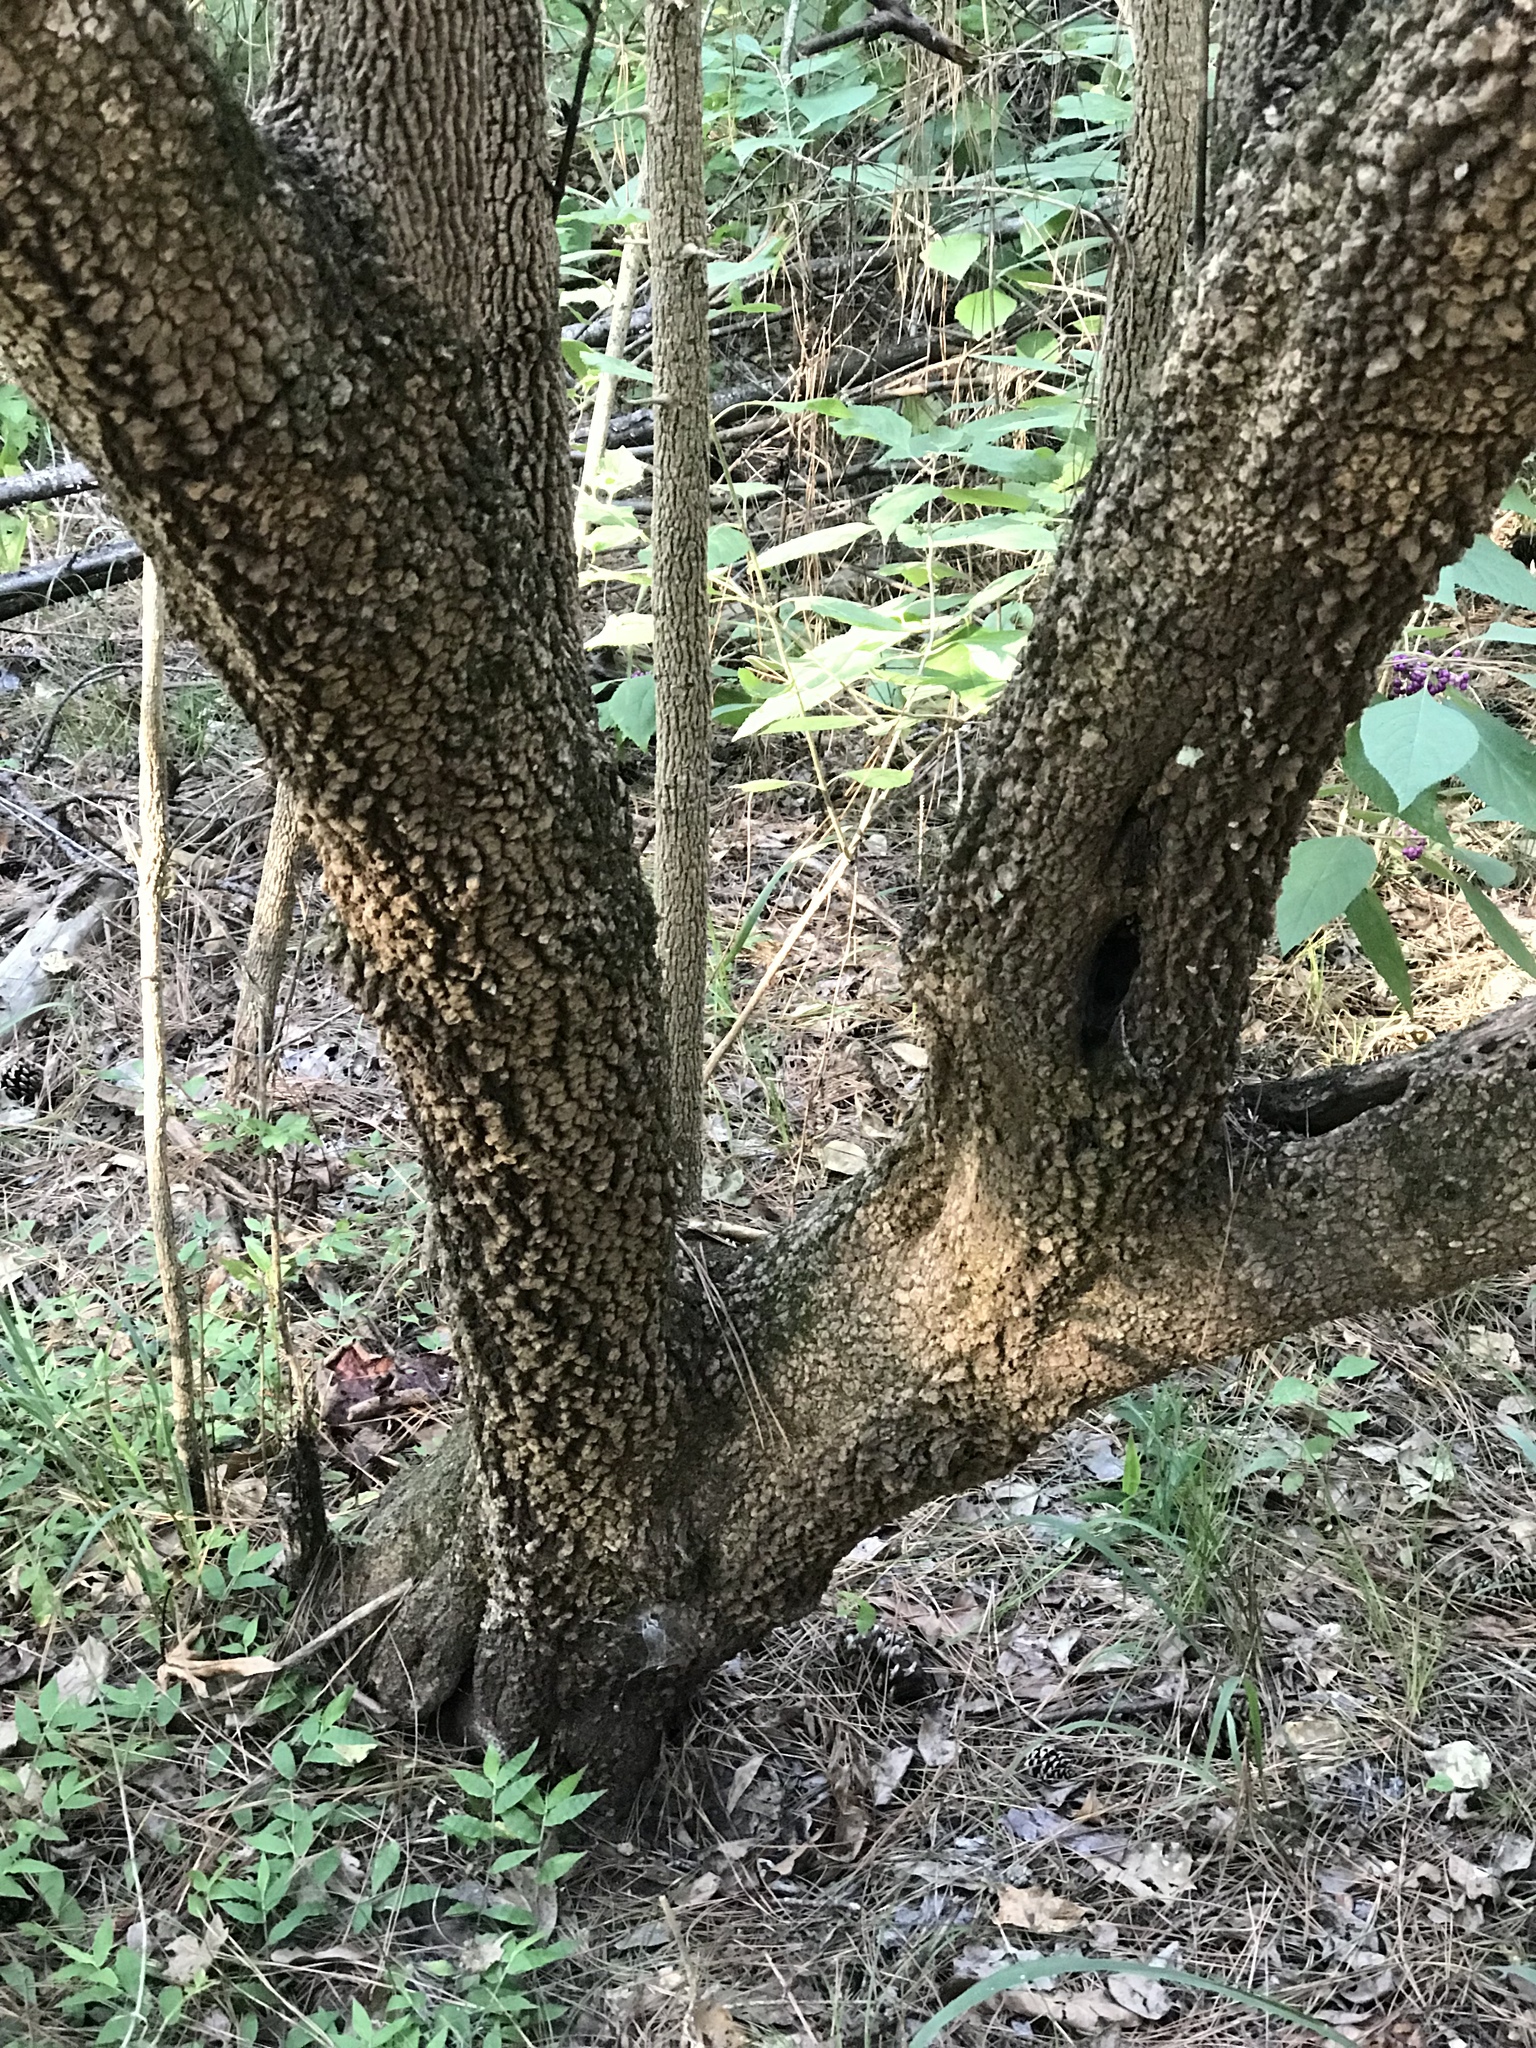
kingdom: Plantae
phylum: Tracheophyta
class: Magnoliopsida
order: Dipsacales
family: Viburnaceae
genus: Viburnum
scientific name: Viburnum rufidulum
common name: Blue haw
